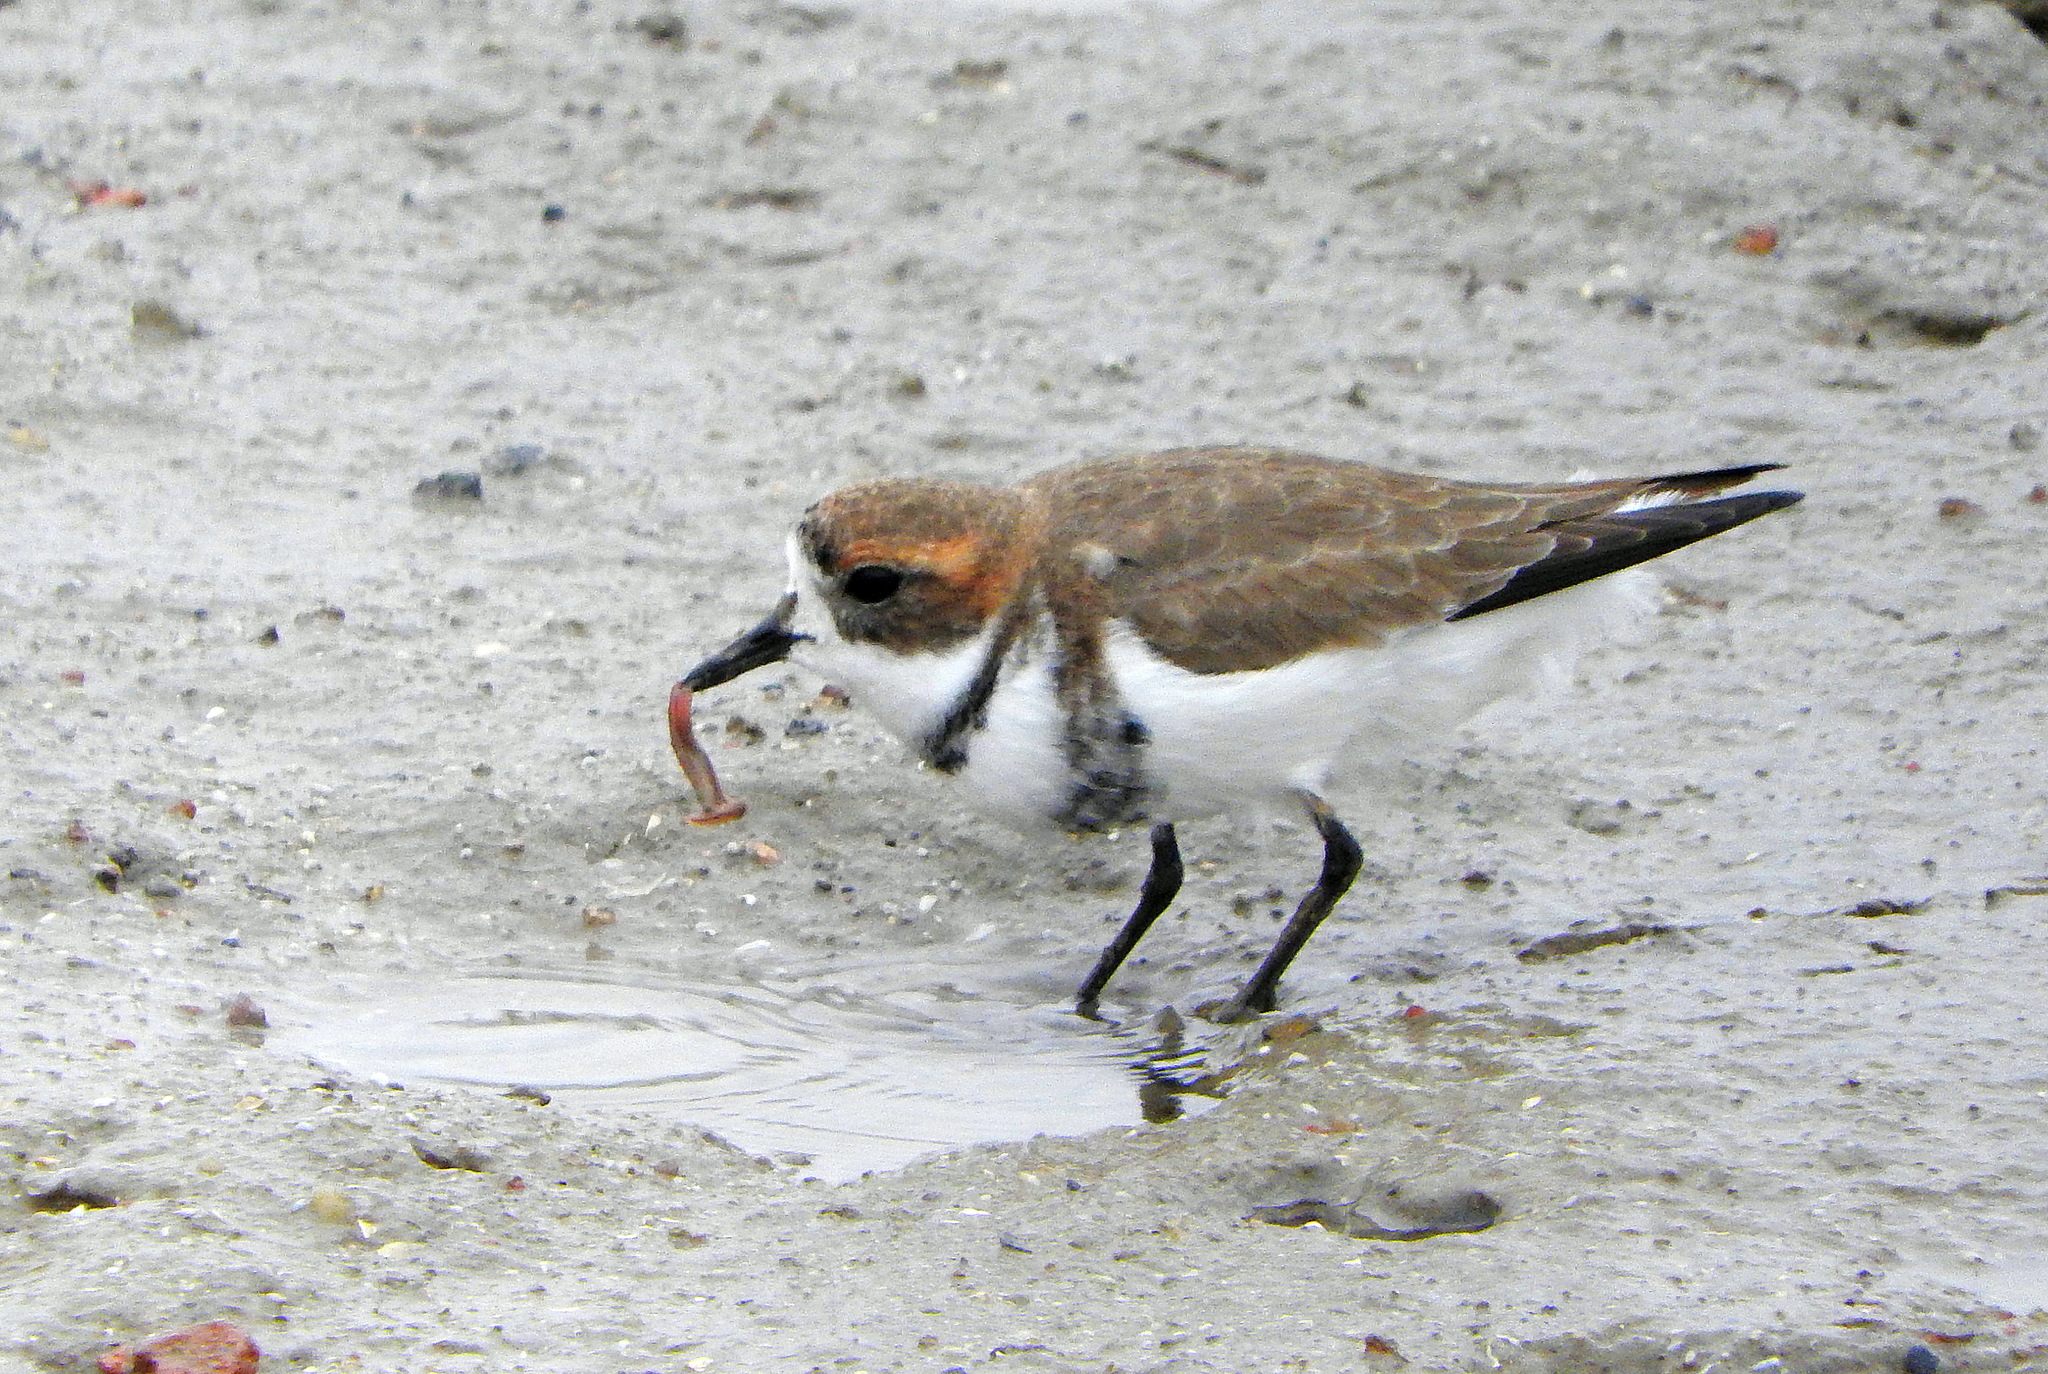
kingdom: Animalia
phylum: Chordata
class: Aves
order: Charadriiformes
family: Charadriidae
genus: Anarhynchus
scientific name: Anarhynchus
